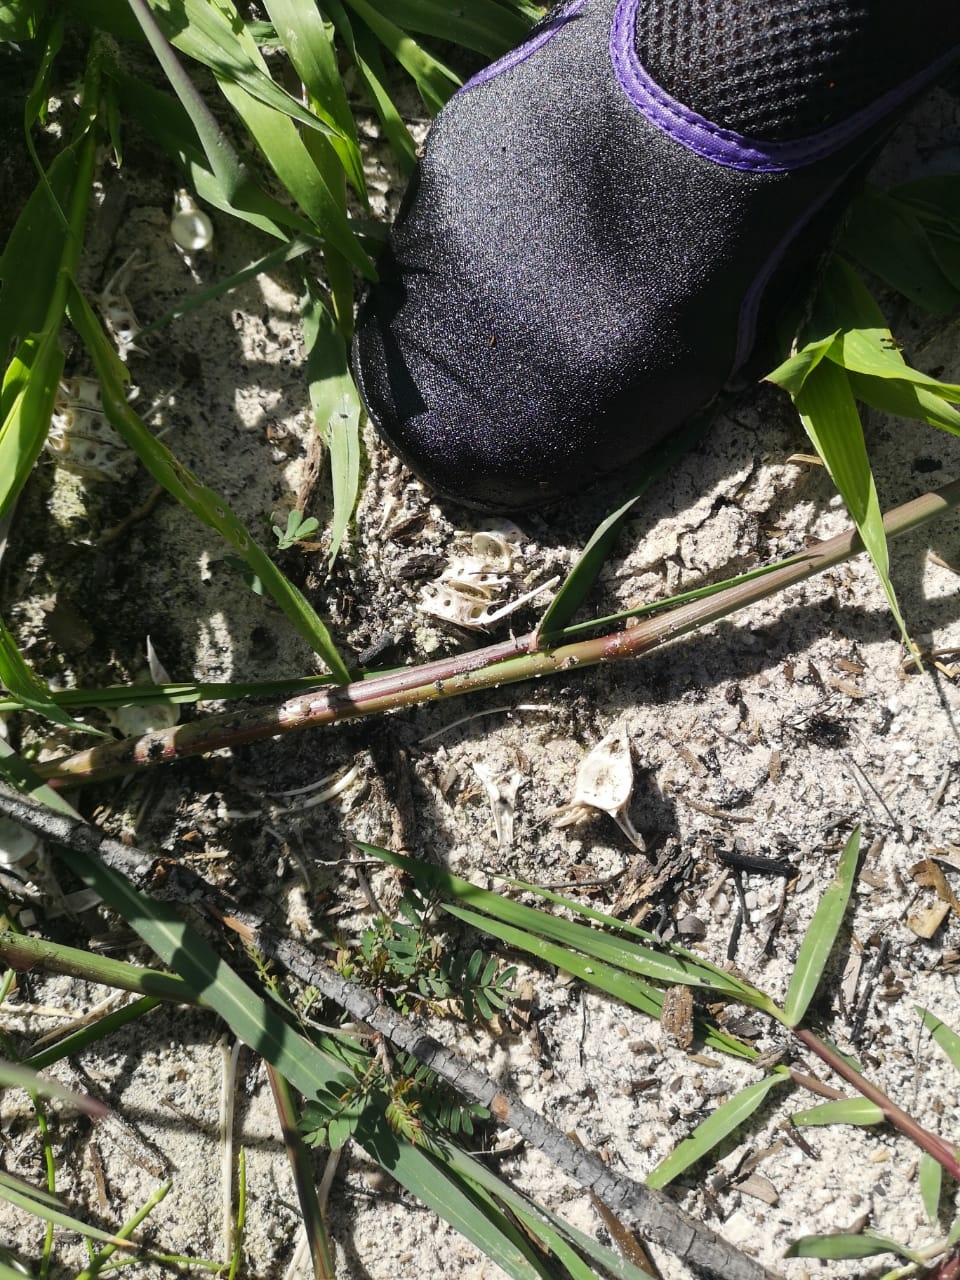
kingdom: Animalia
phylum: Chordata
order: Siluriformes
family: Clariidae
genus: Clarias
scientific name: Clarias gariepinus
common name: African catfish
